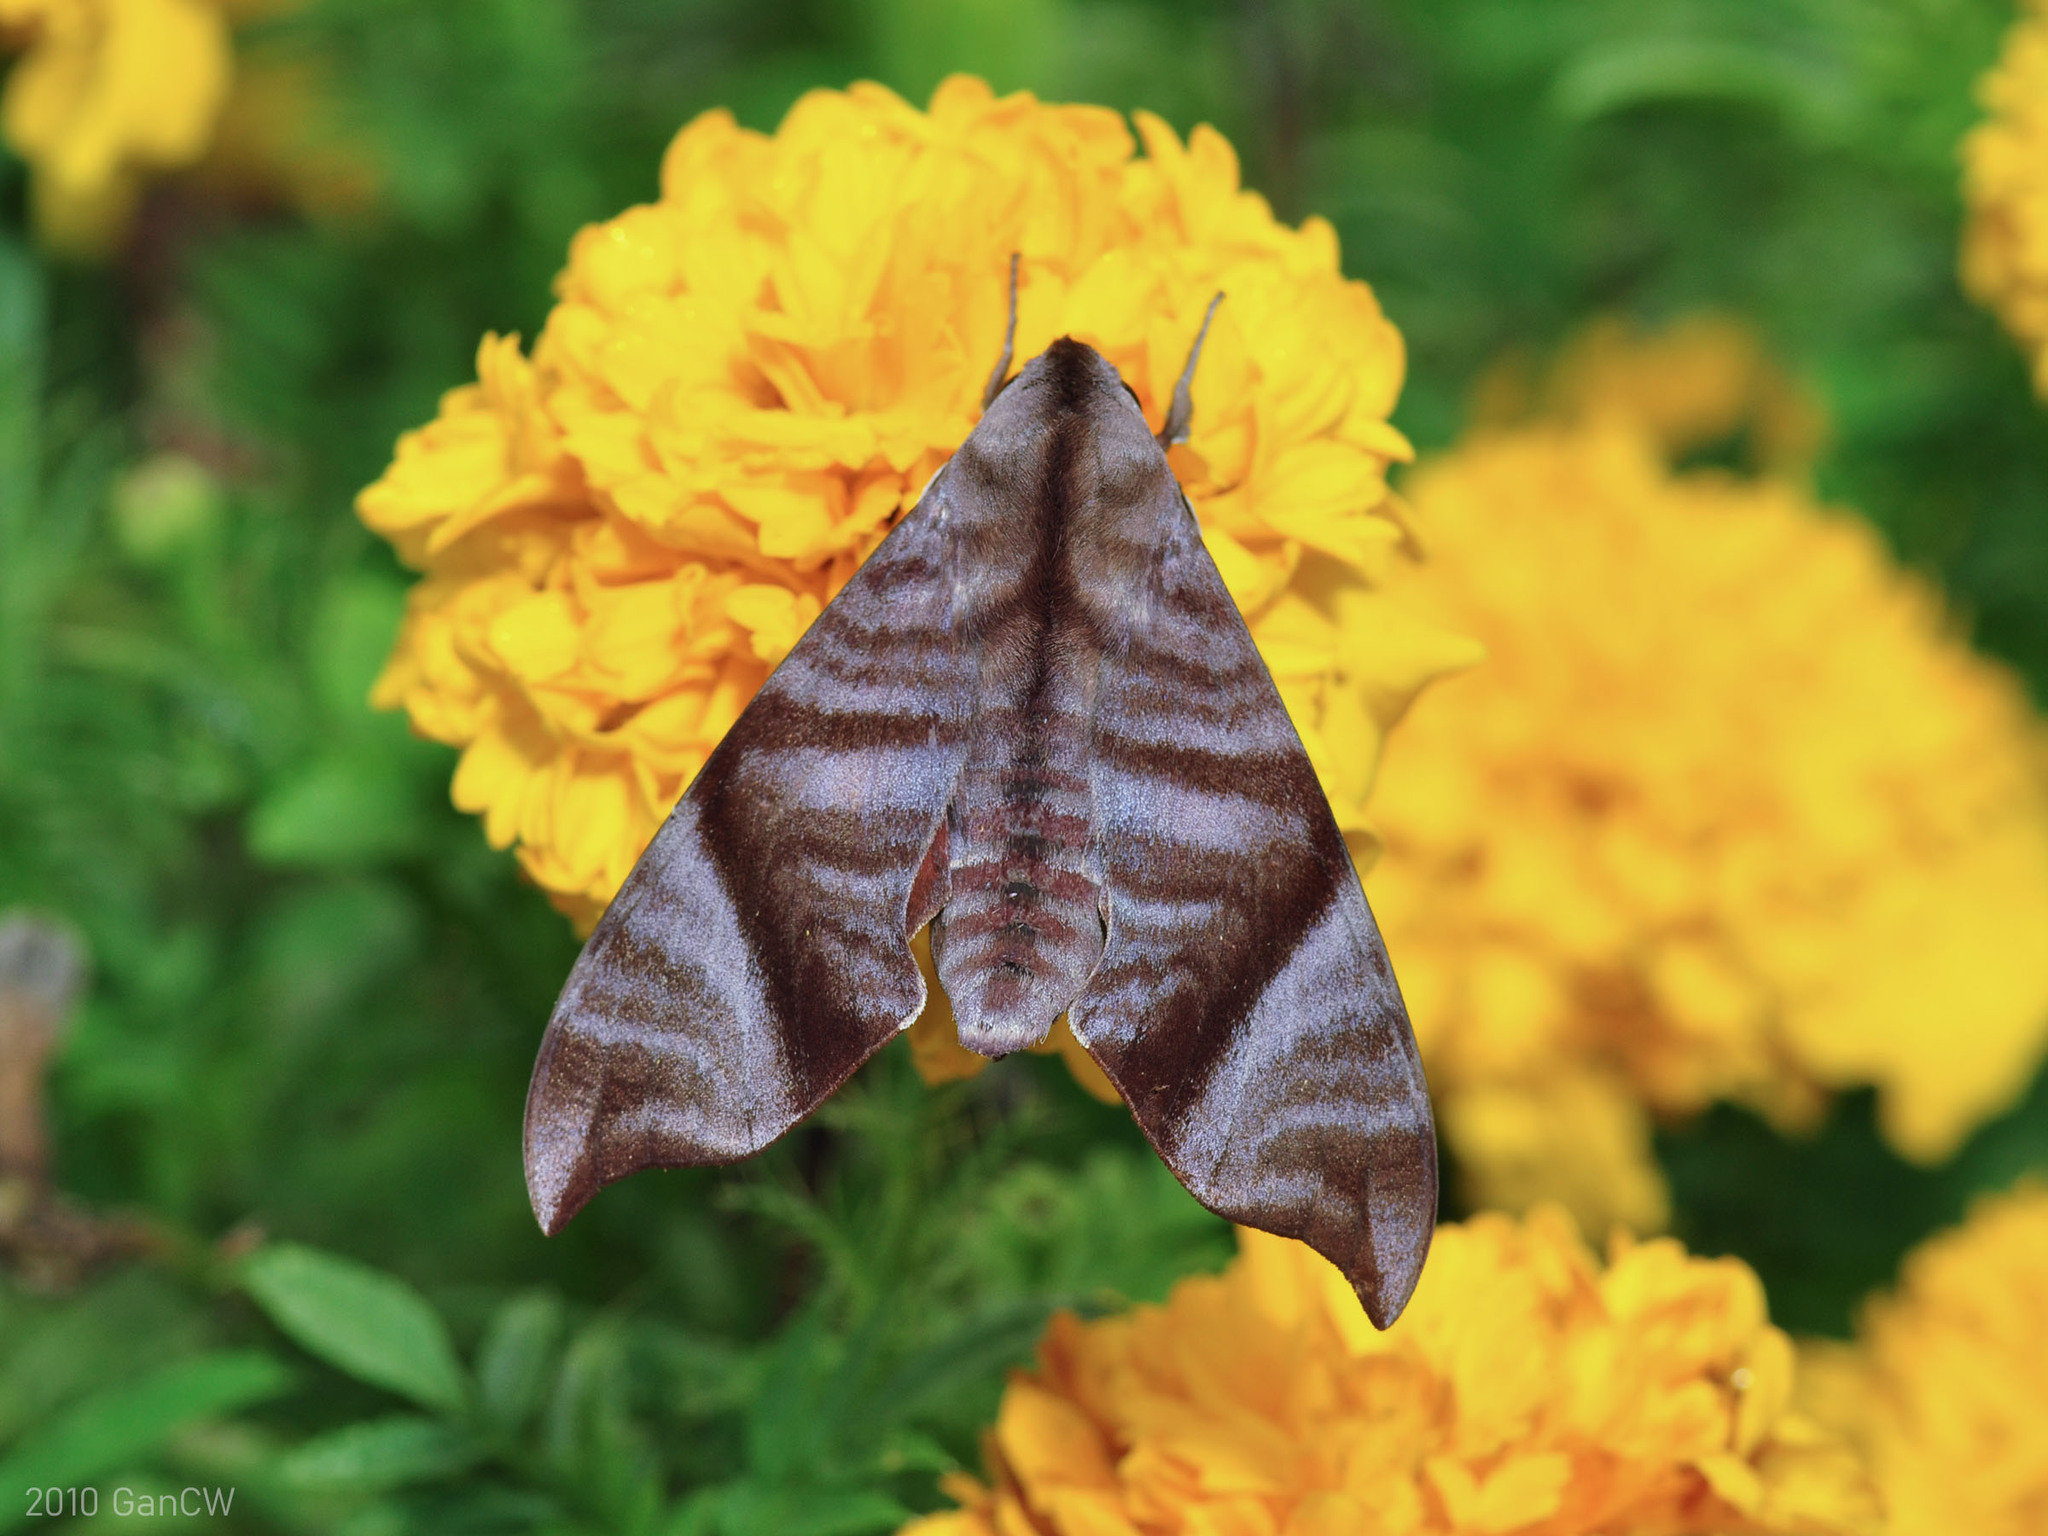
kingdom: Animalia
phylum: Arthropoda
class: Insecta
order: Lepidoptera
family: Sphingidae
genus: Dahira
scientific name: Dahira falcata
